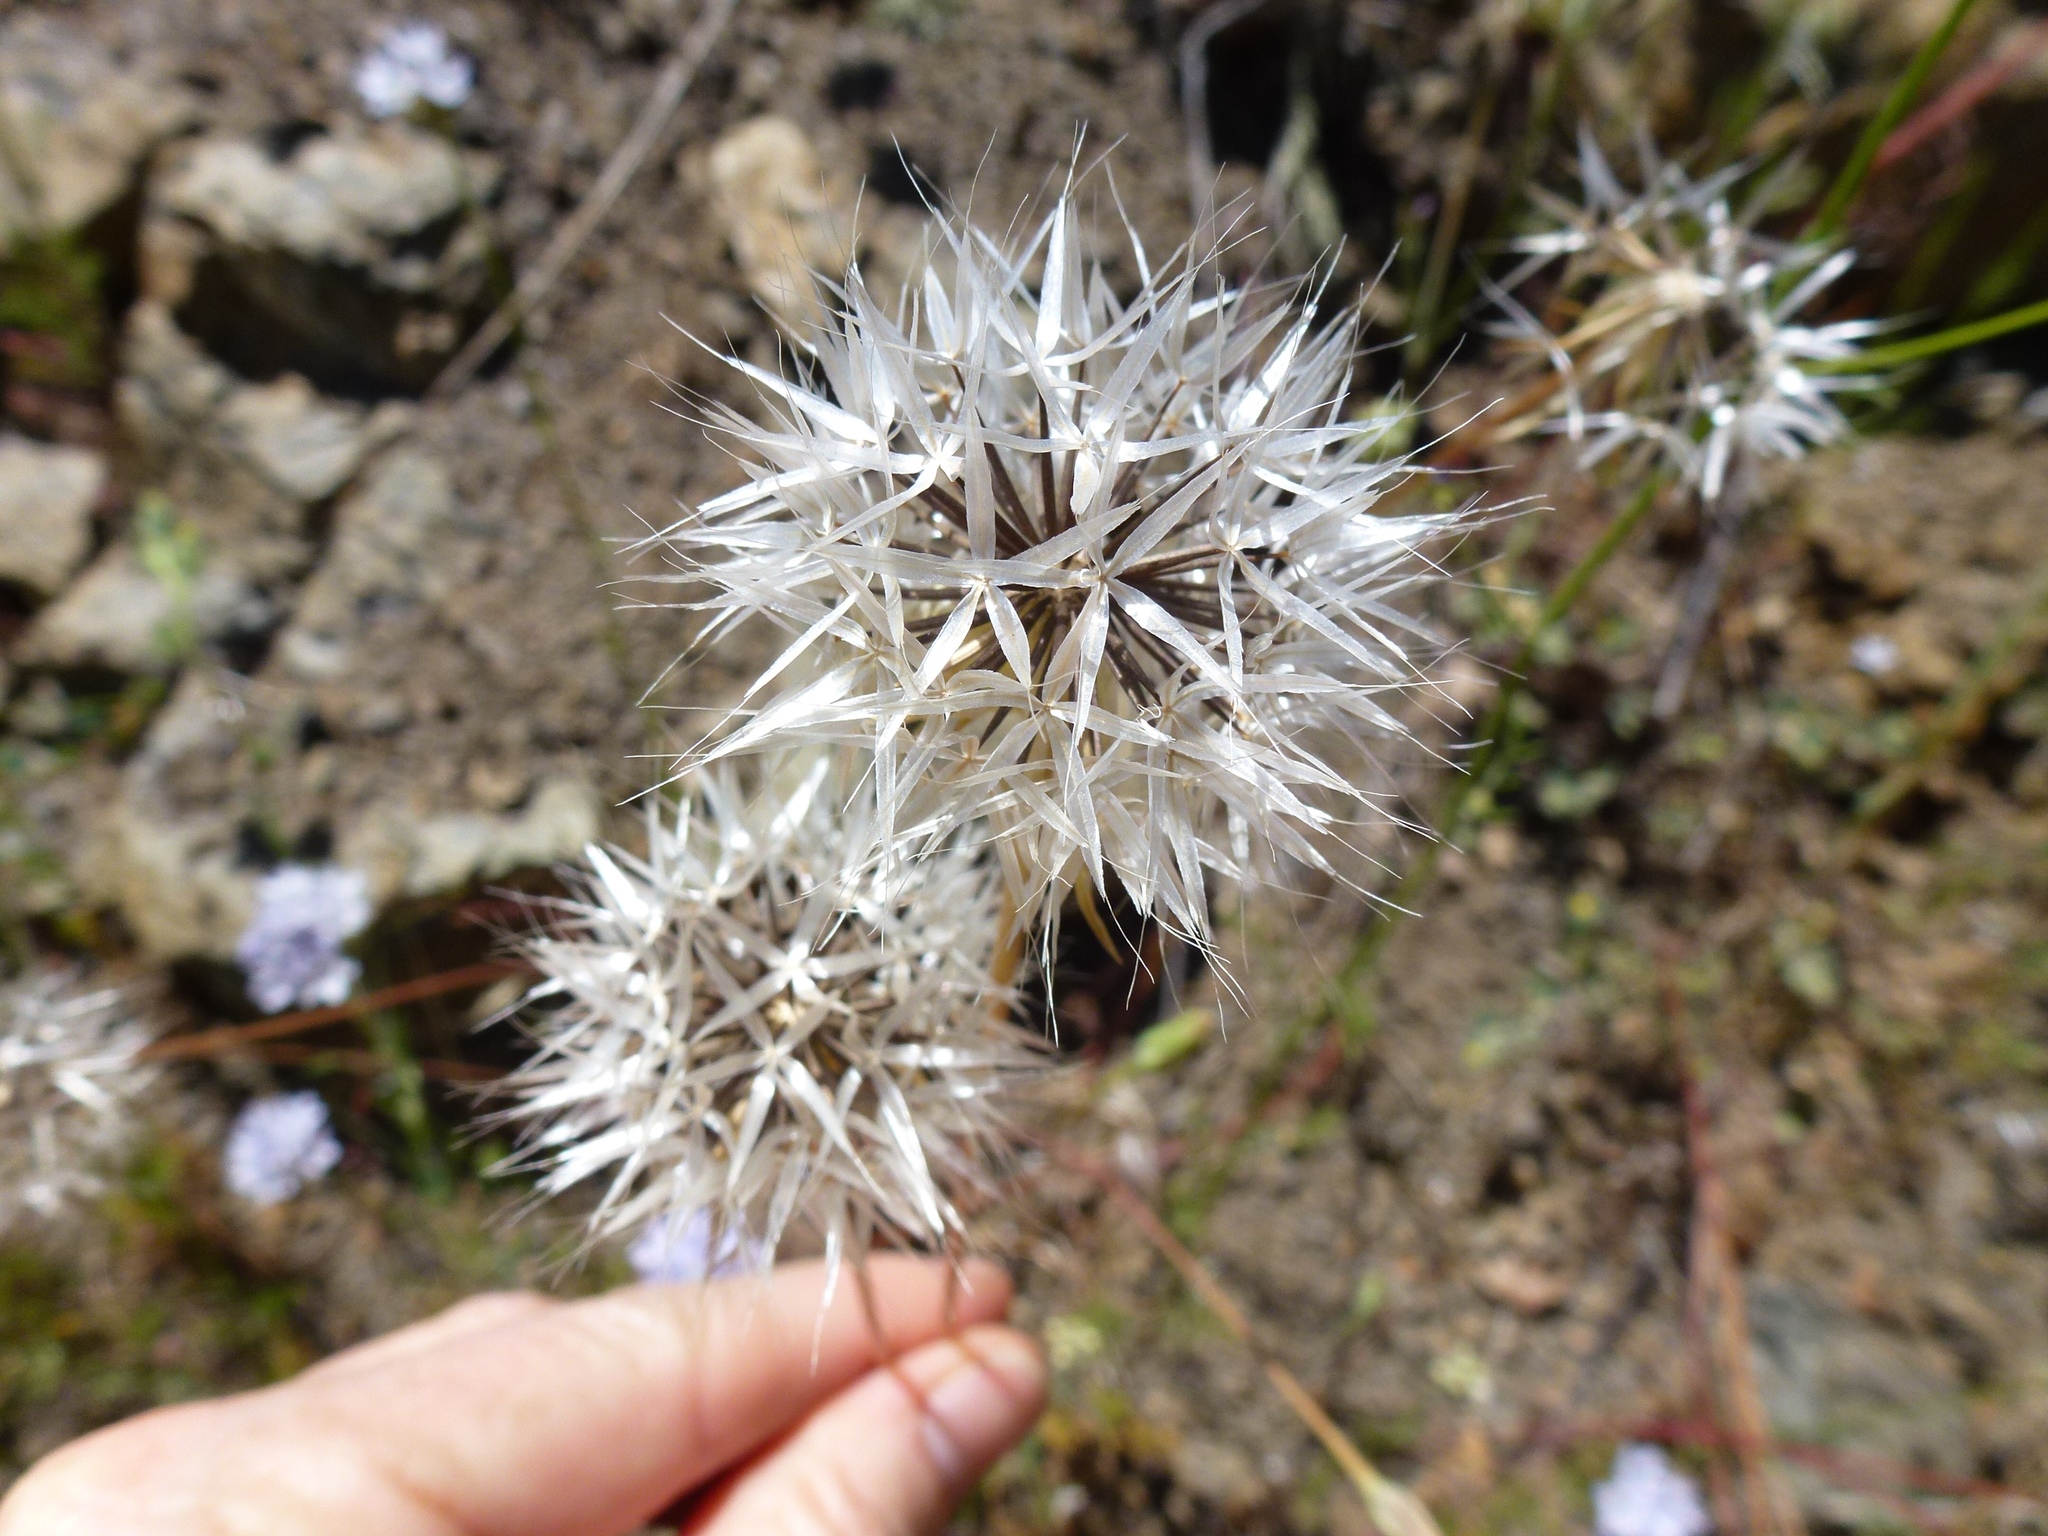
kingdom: Plantae
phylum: Tracheophyta
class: Magnoliopsida
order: Asterales
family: Asteraceae
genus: Microseris
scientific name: Microseris lindleyi
